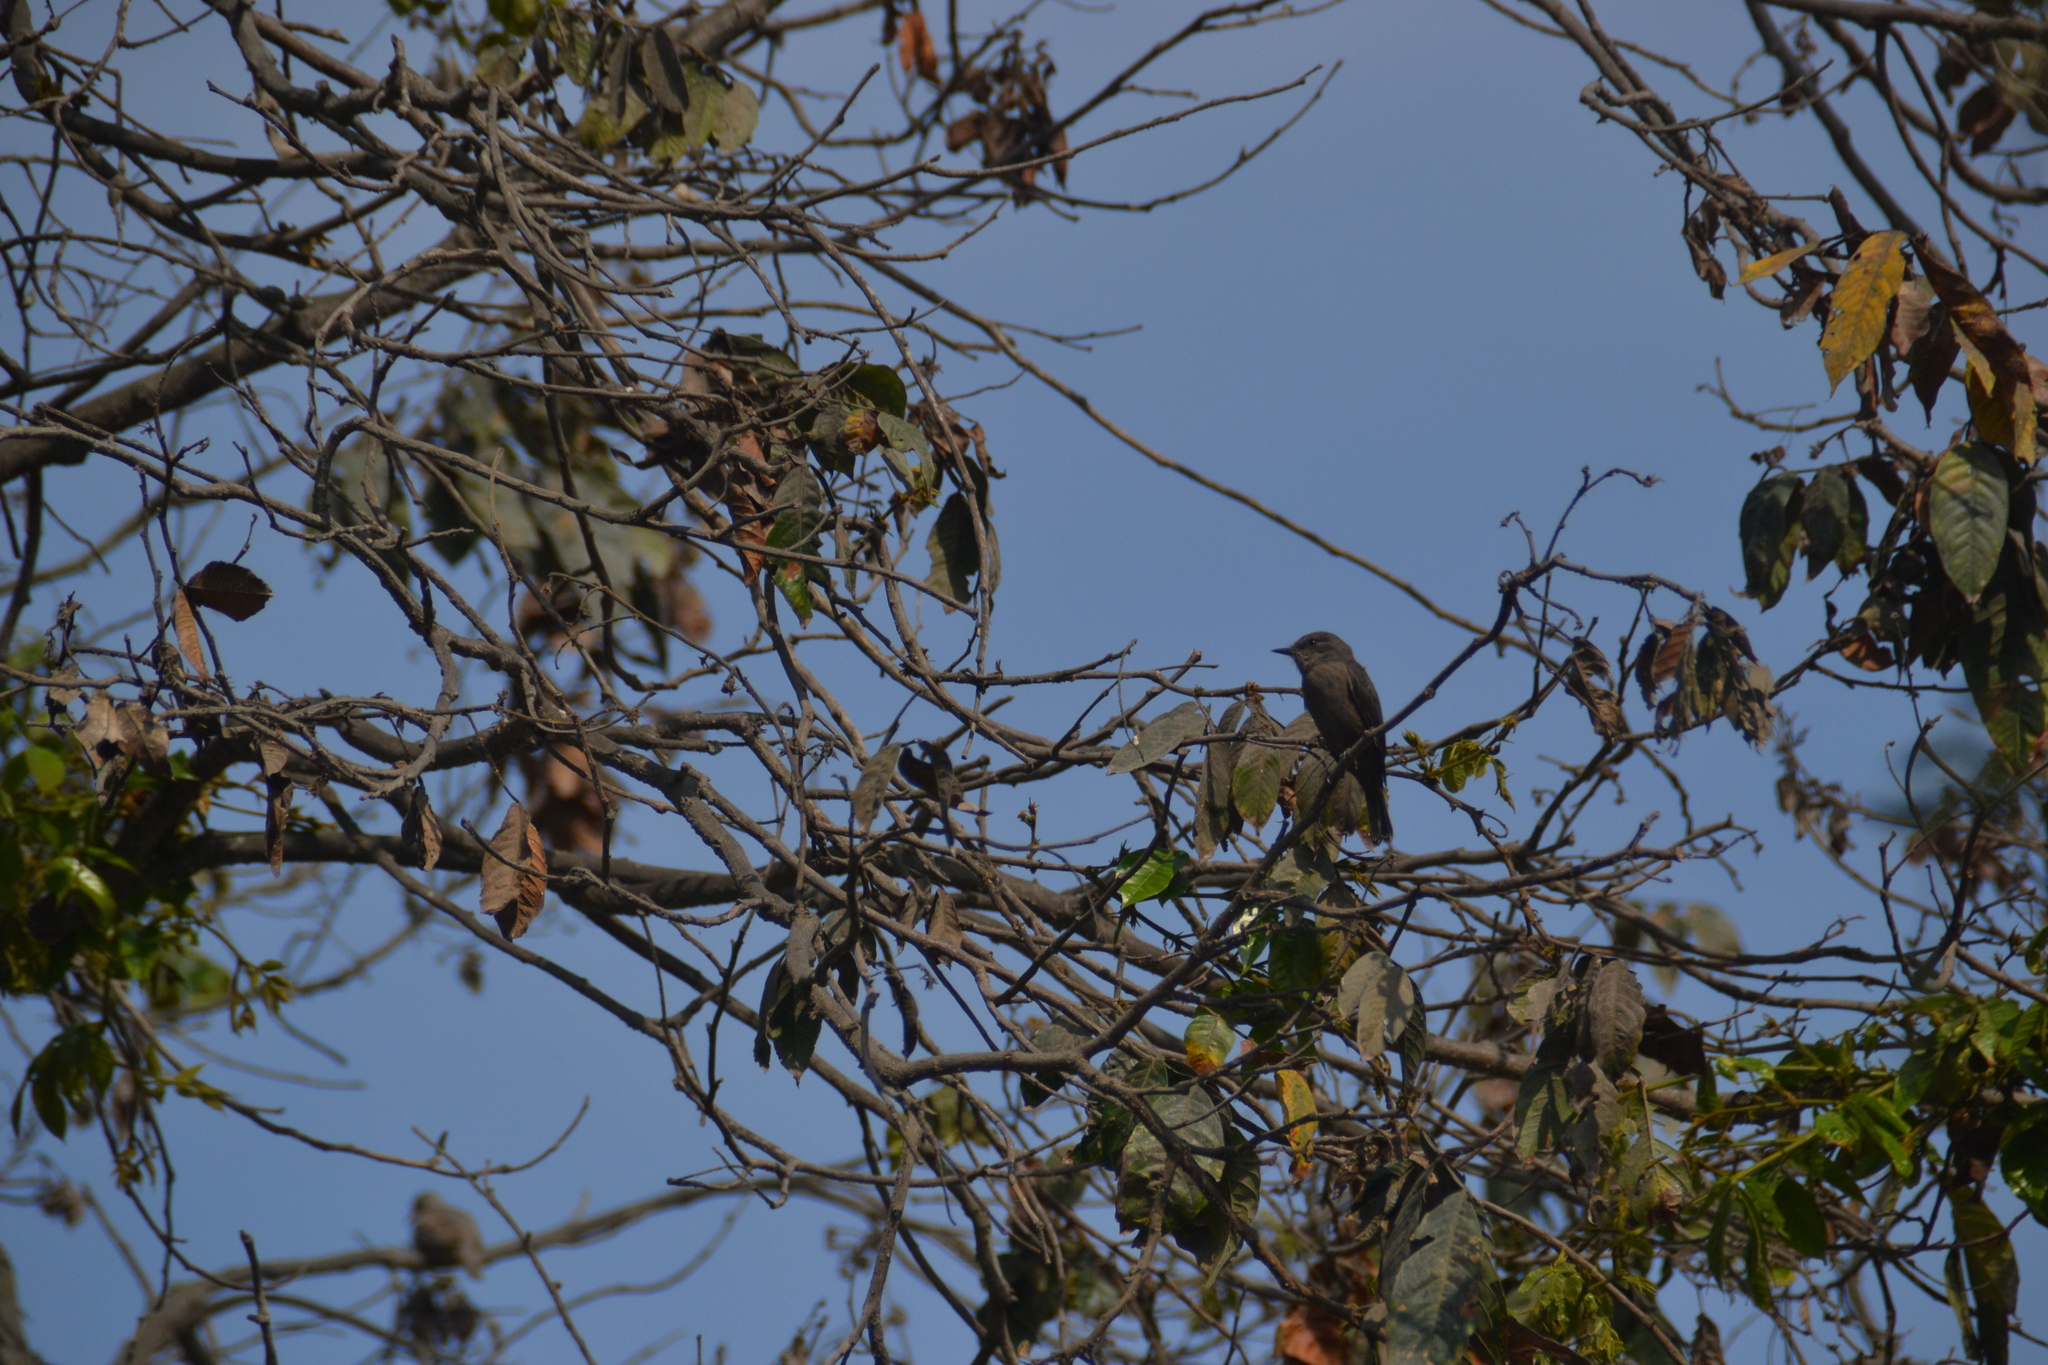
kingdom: Animalia
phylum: Chordata
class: Aves
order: Passeriformes
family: Tyrannidae
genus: Pyrocephalus
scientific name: Pyrocephalus rubinus
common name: Vermilion flycatcher
